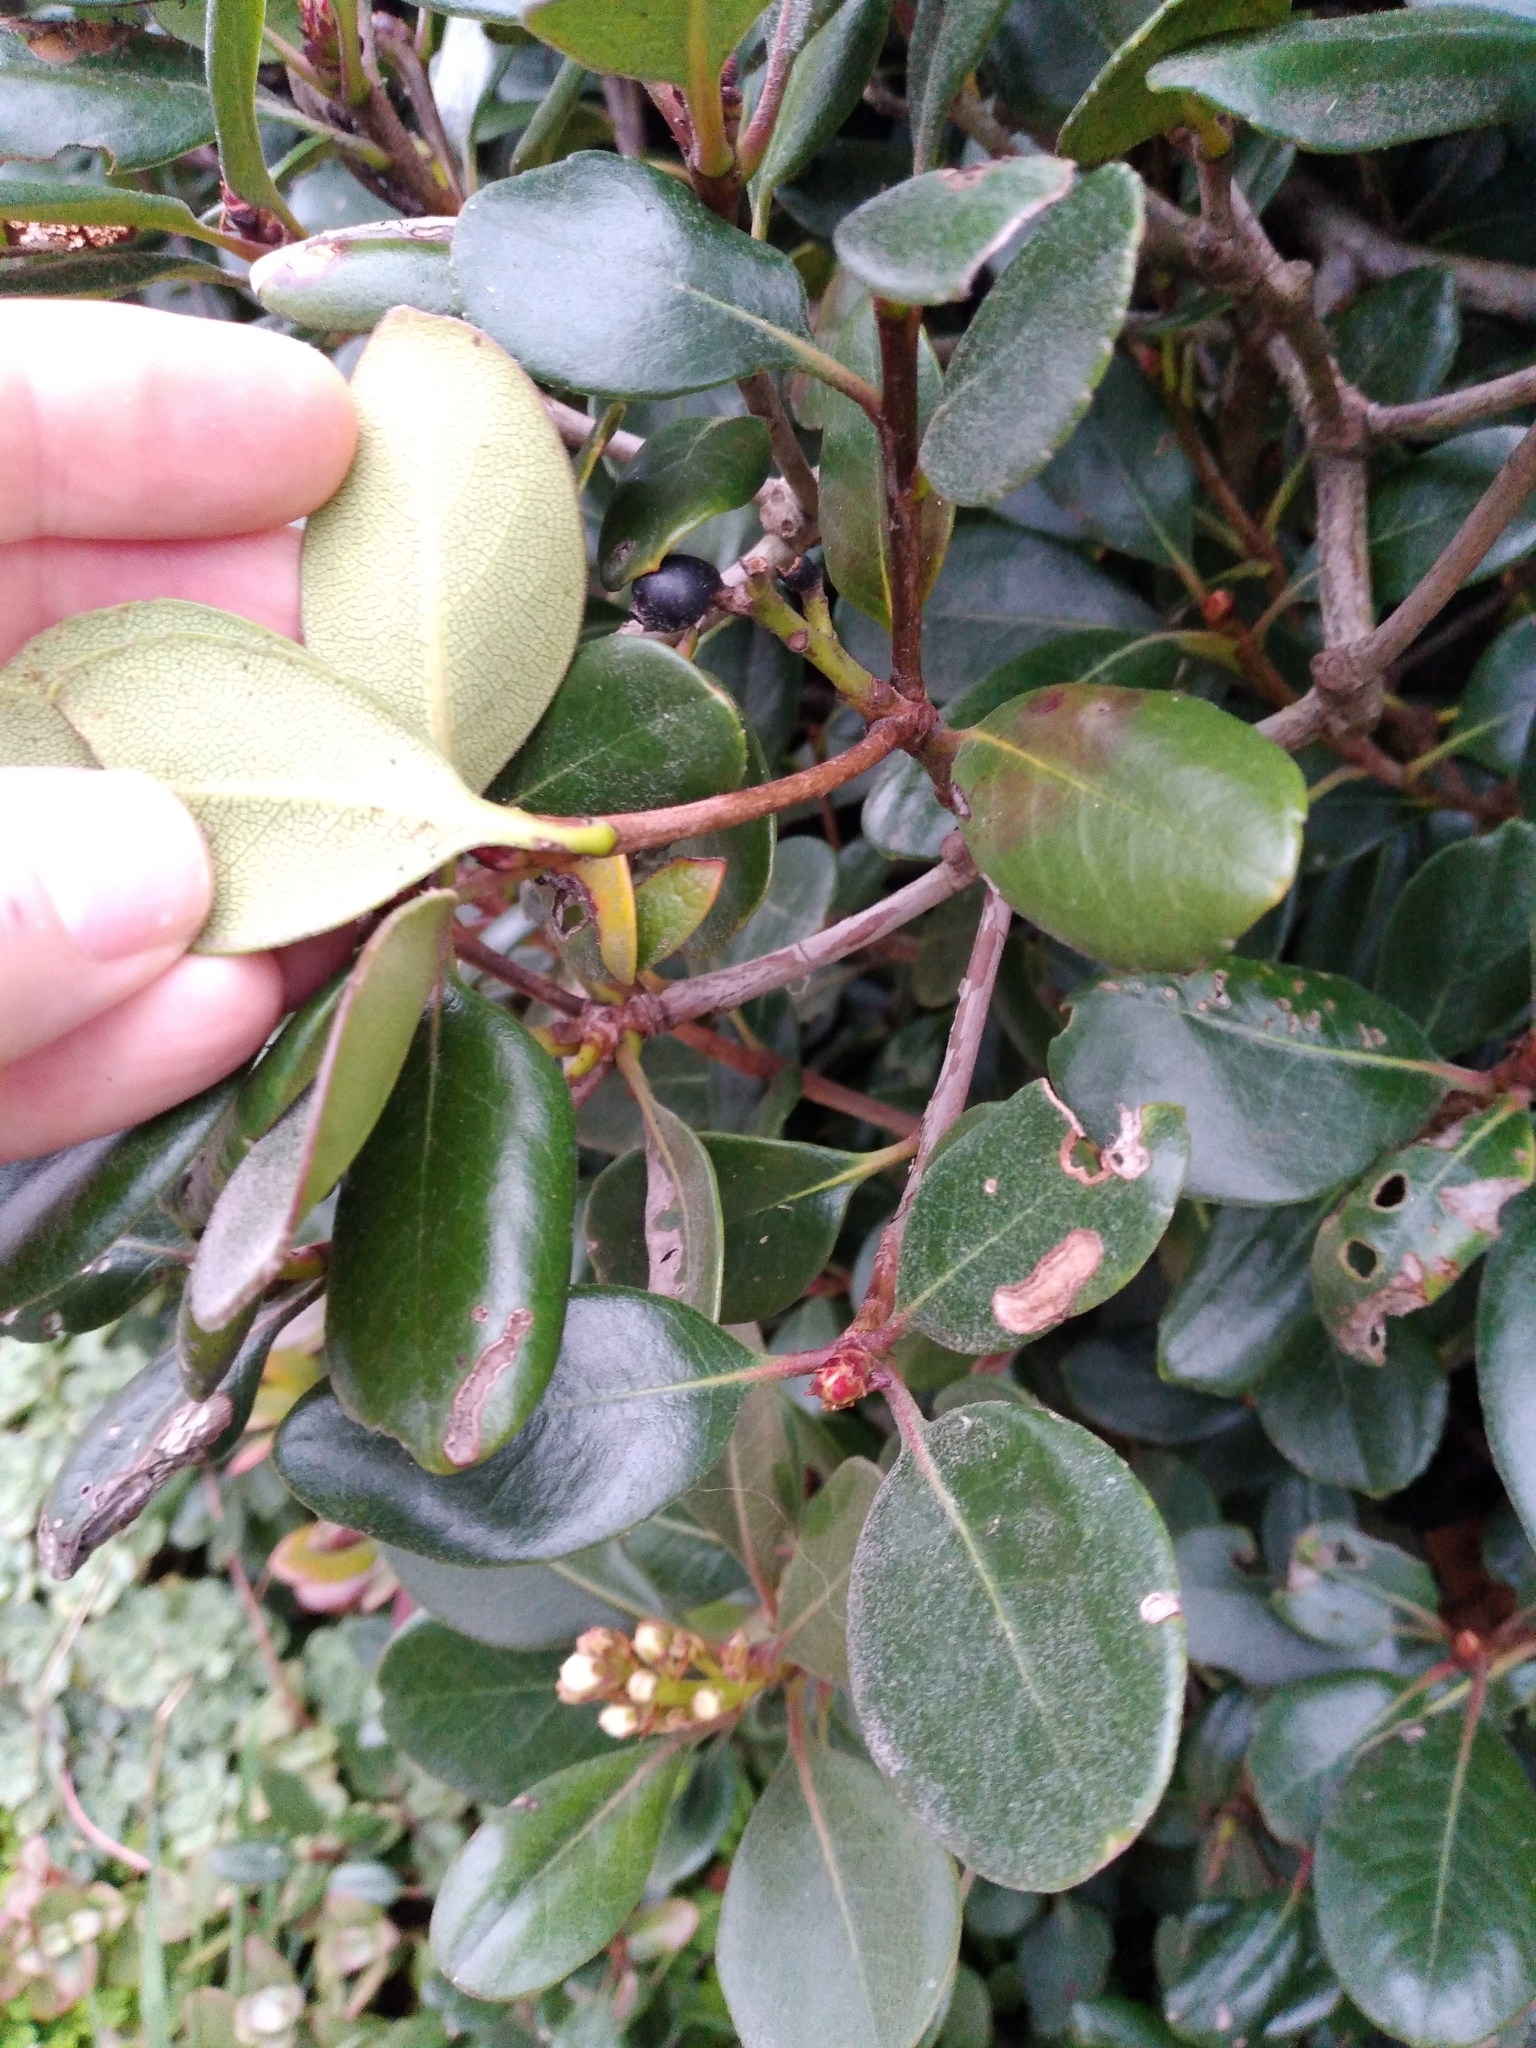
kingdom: Plantae
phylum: Tracheophyta
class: Magnoliopsida
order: Rosales
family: Rosaceae
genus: Rhaphiolepis
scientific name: Rhaphiolepis umbellata
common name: Yedda-hawthorn
